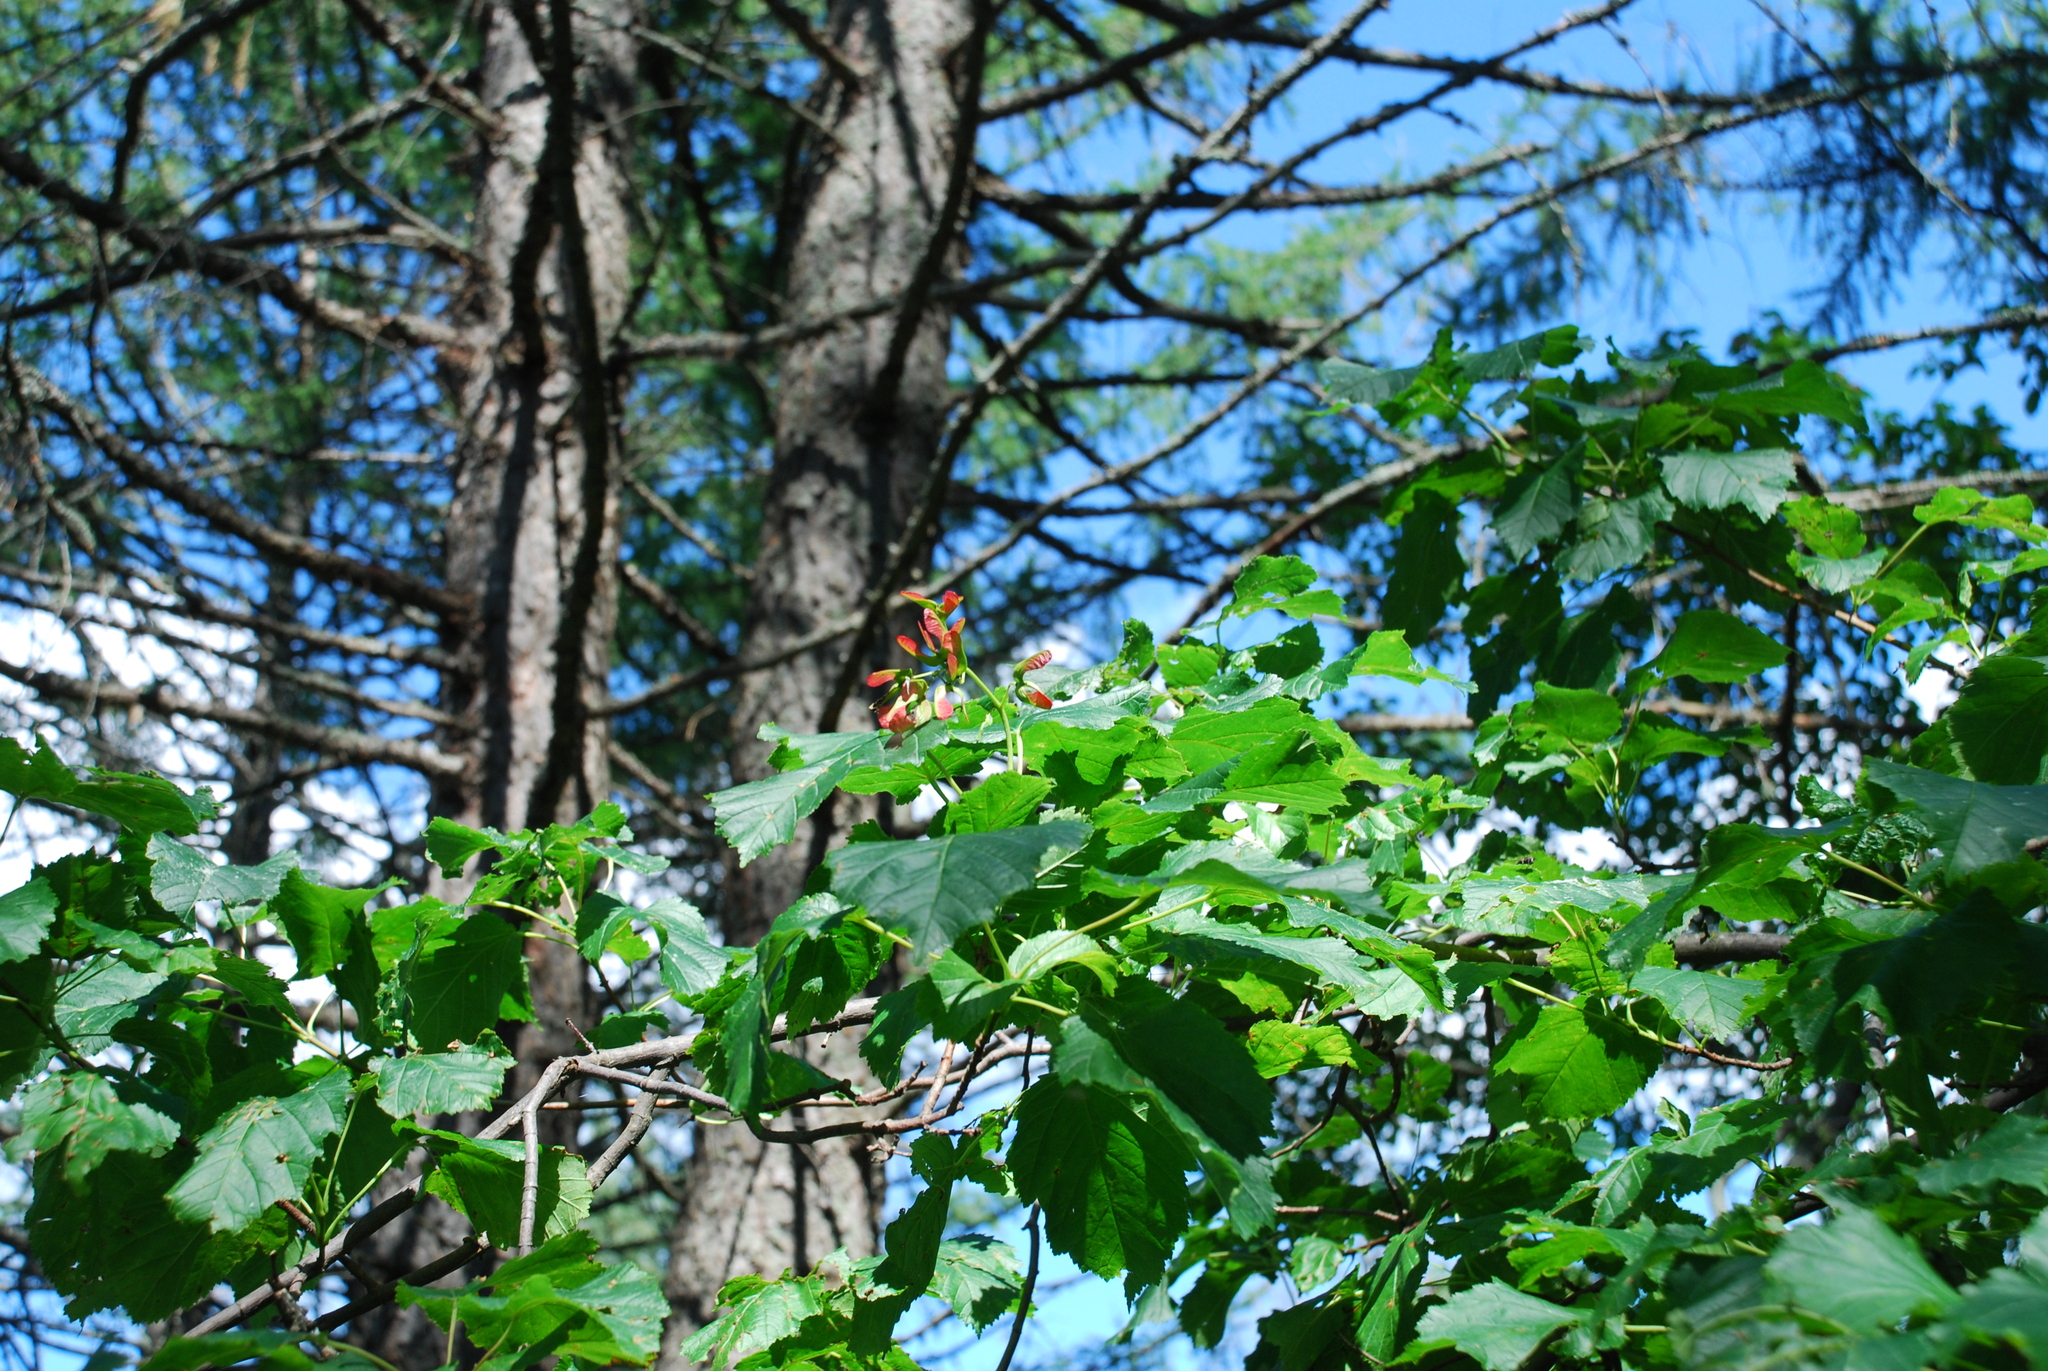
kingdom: Plantae
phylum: Tracheophyta
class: Magnoliopsida
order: Sapindales
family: Sapindaceae
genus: Acer
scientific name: Acer tataricum
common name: Tartar maple
